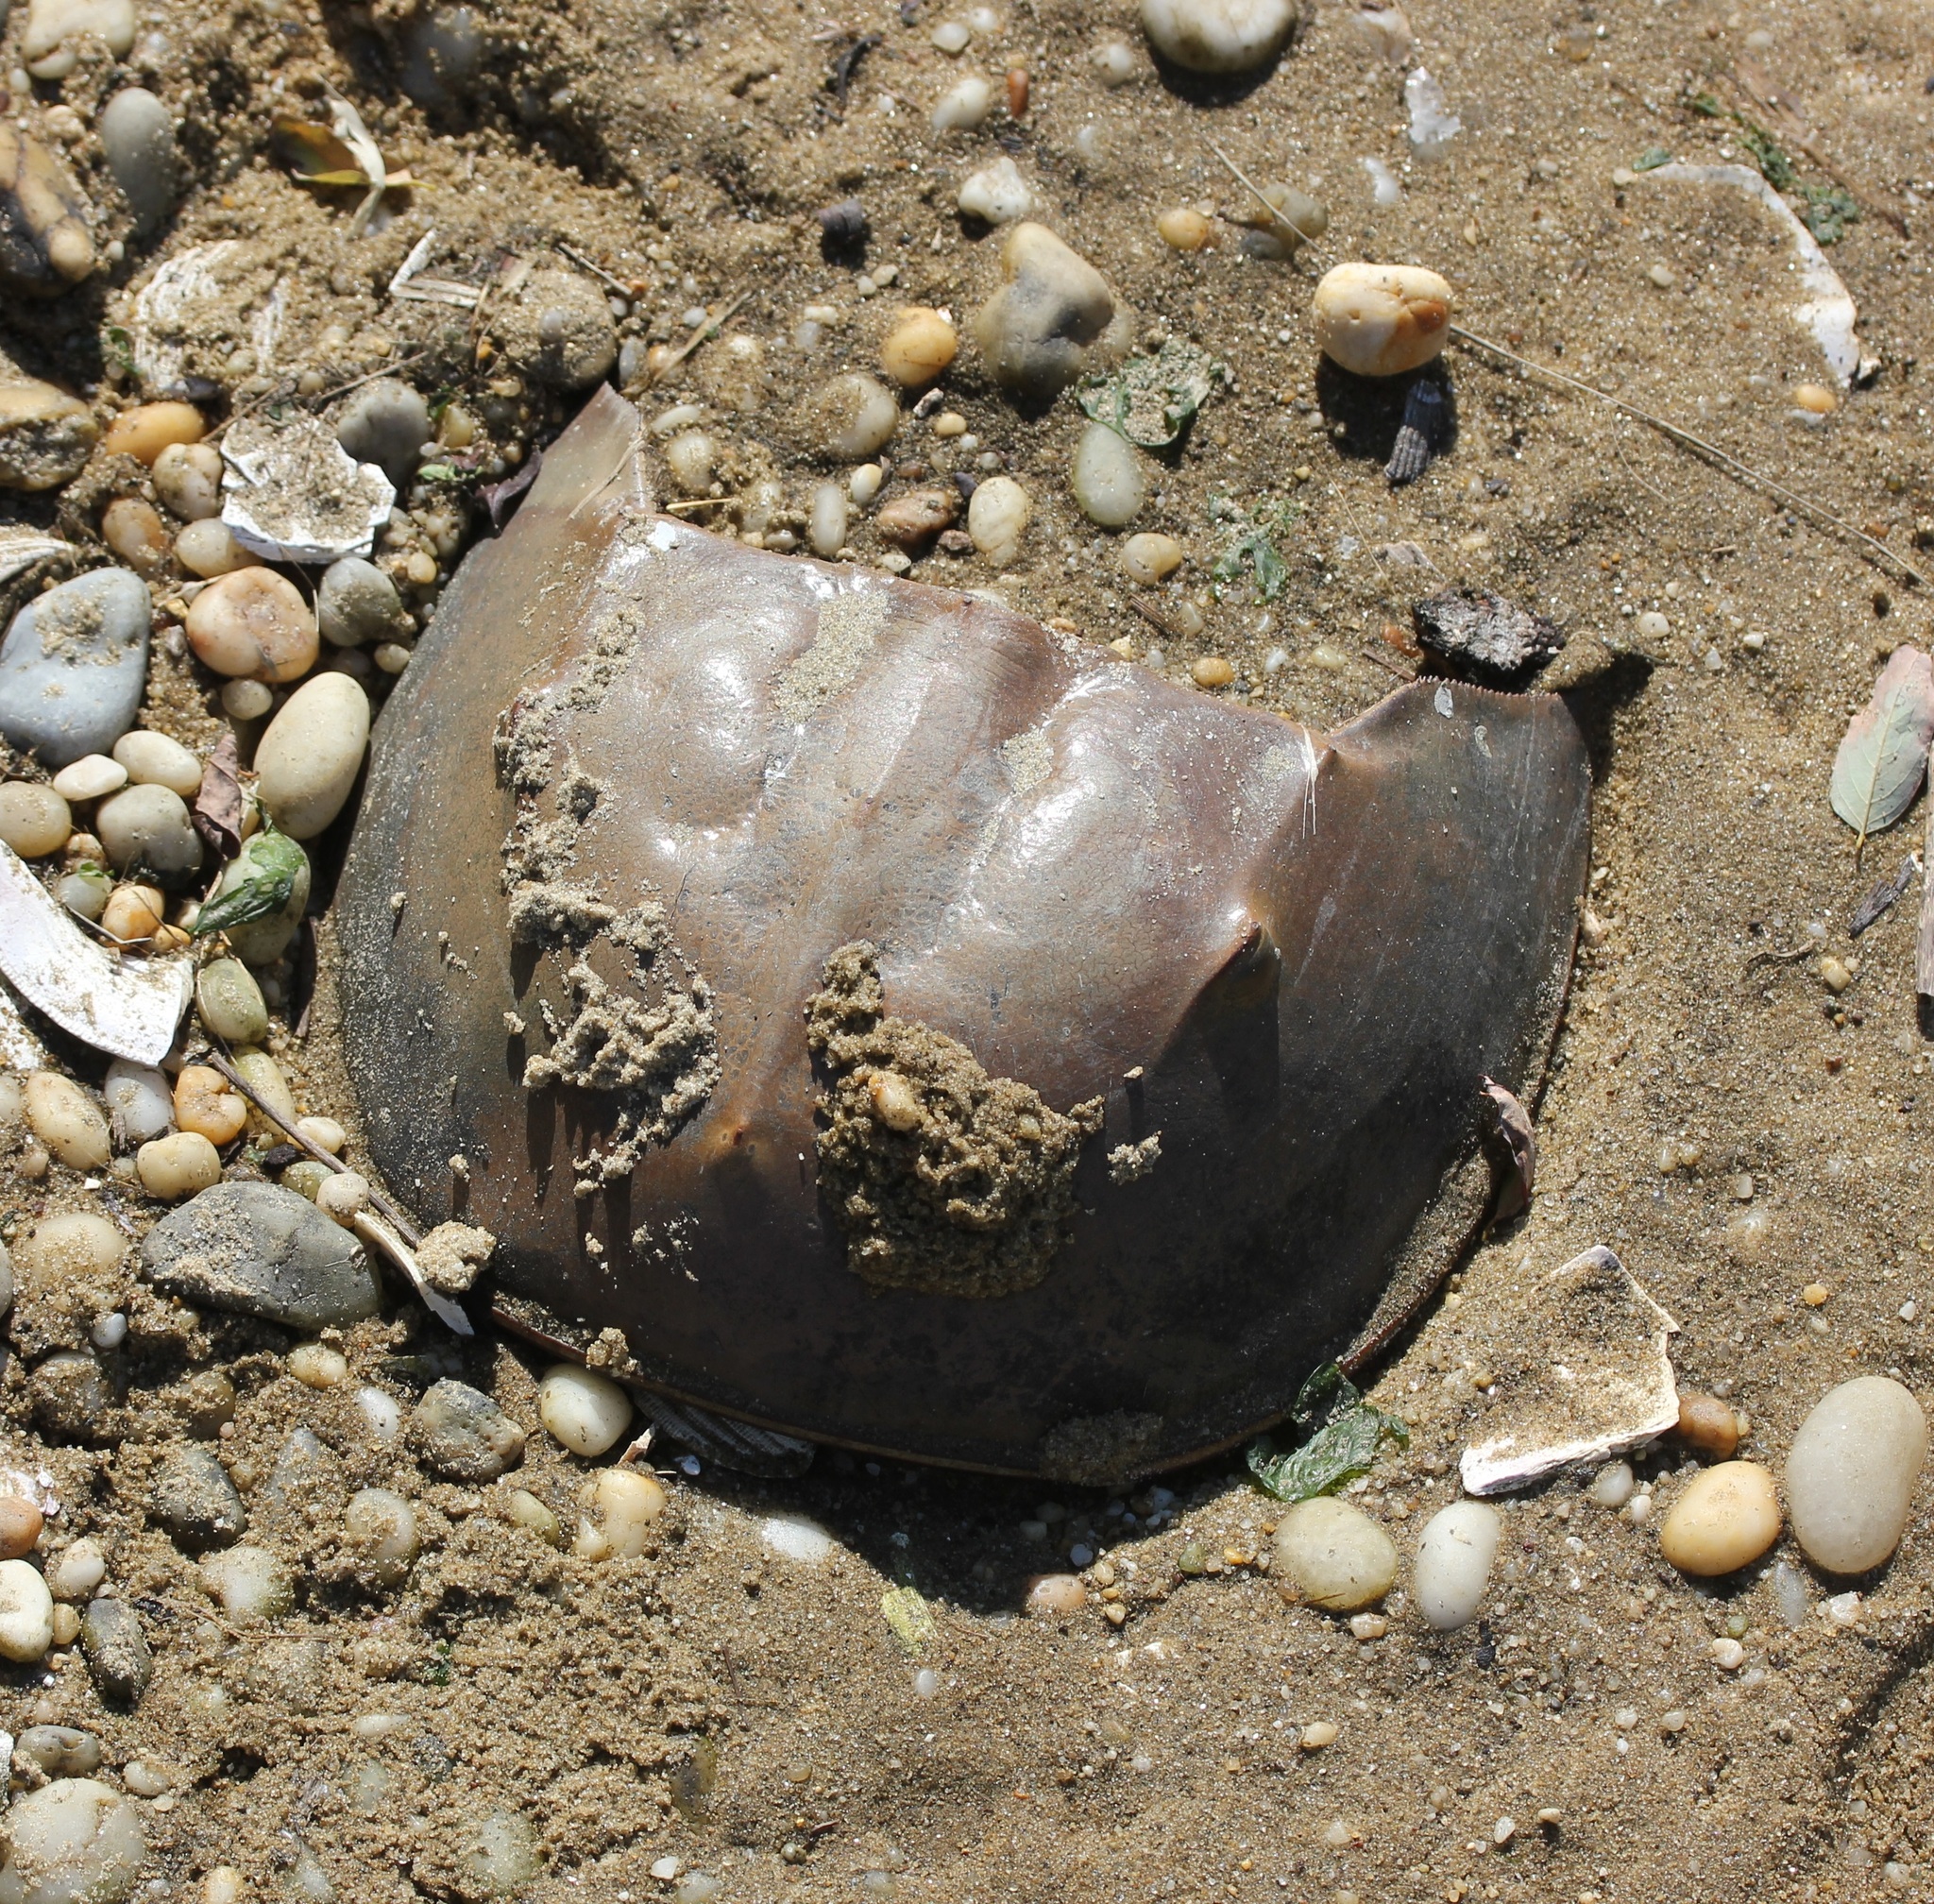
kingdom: Animalia
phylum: Arthropoda
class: Merostomata
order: Xiphosurida
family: Limulidae
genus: Limulus
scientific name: Limulus polyphemus
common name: Horseshoe crab
